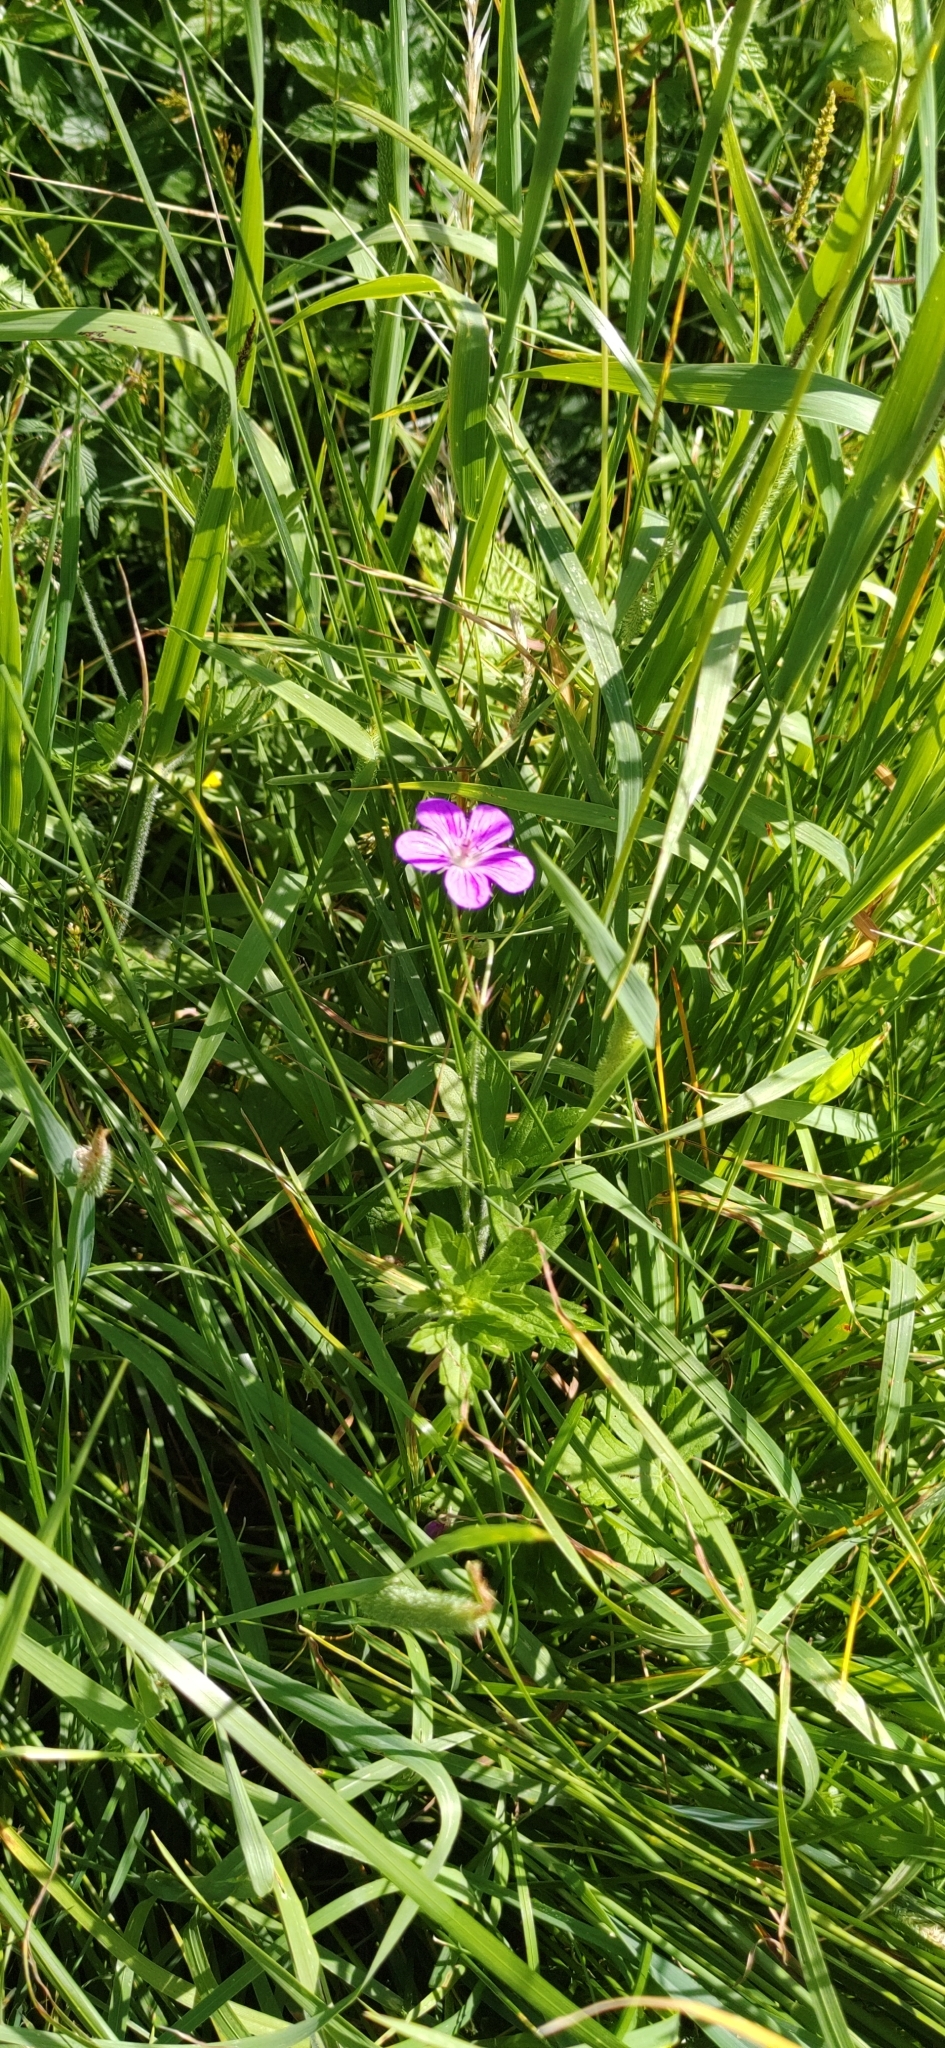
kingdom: Plantae
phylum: Tracheophyta
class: Magnoliopsida
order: Geraniales
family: Geraniaceae
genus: Geranium
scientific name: Geranium palustre
